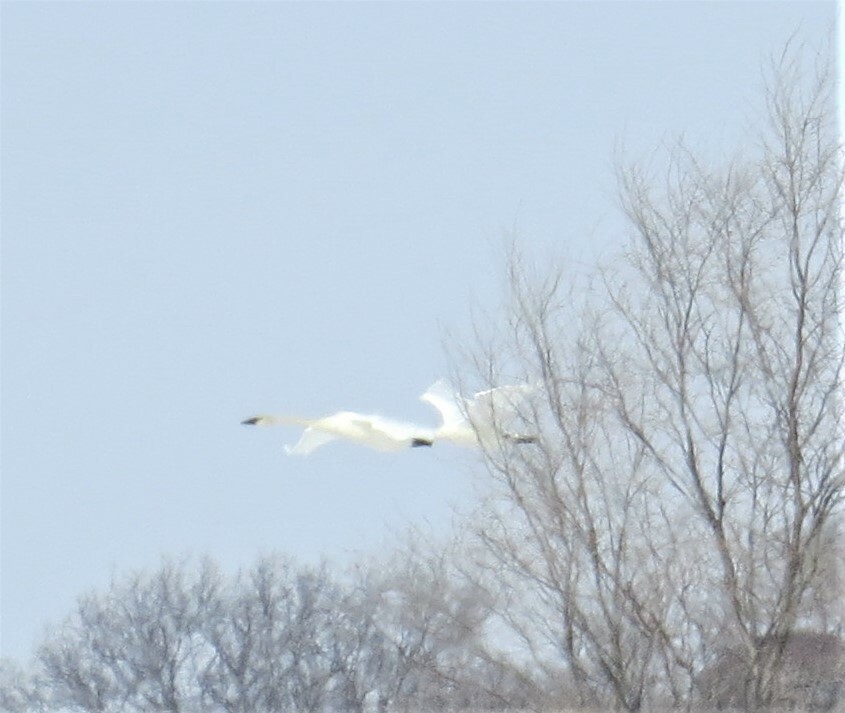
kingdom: Animalia
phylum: Chordata
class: Aves
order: Anseriformes
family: Anatidae
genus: Cygnus
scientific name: Cygnus buccinator
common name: Trumpeter swan
